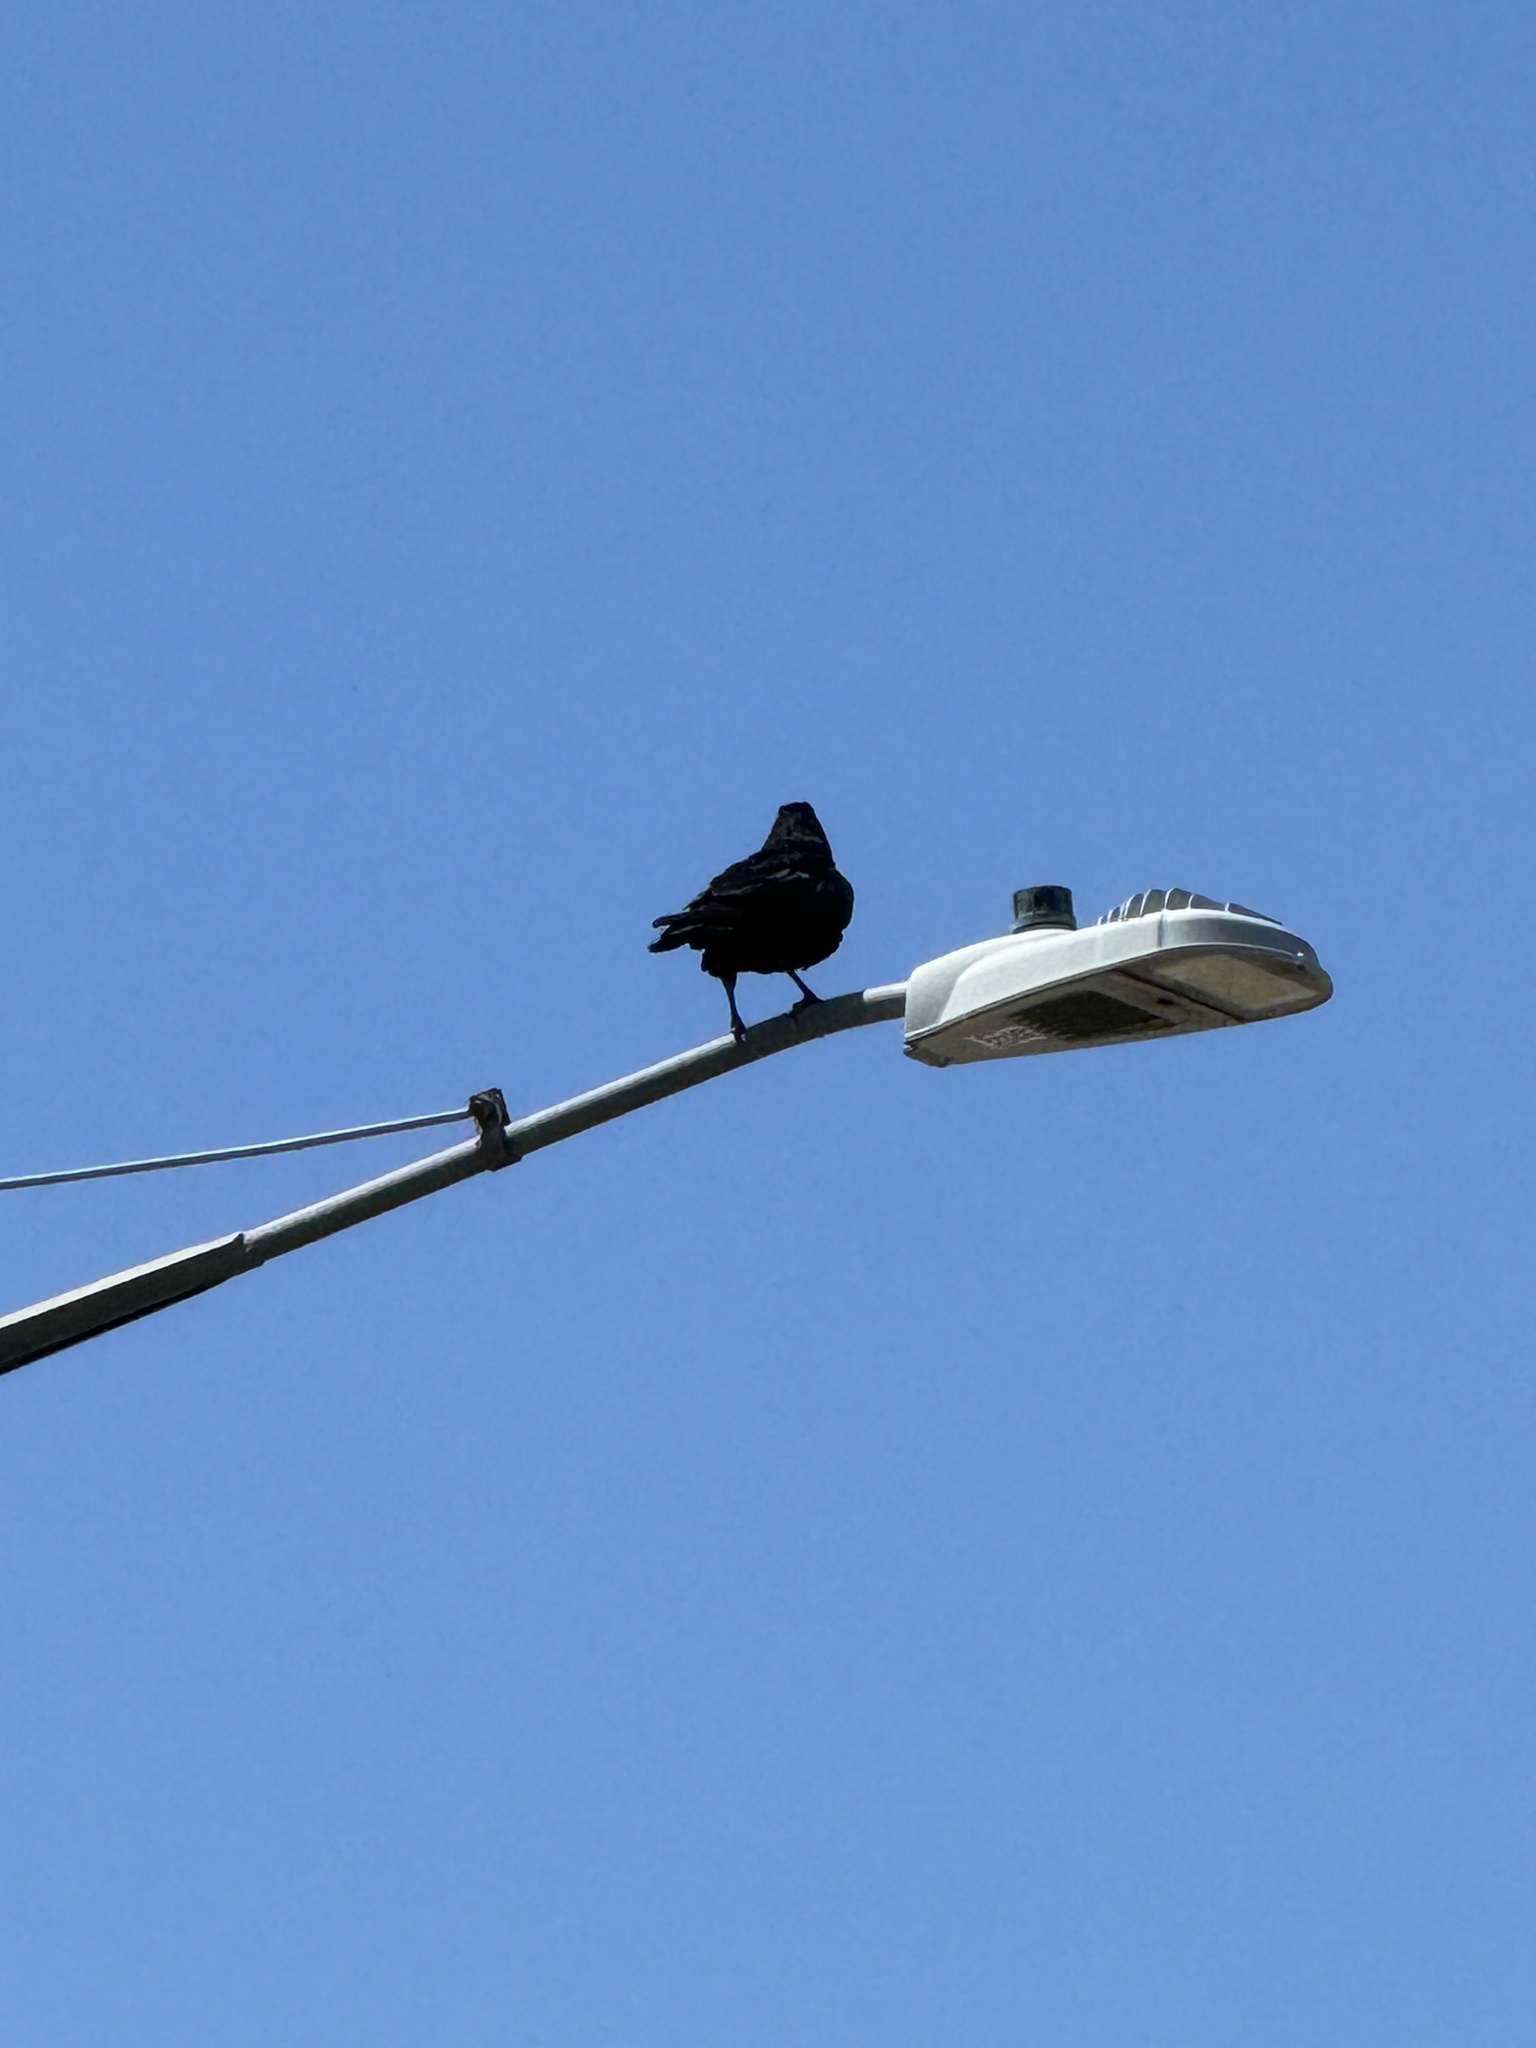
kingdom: Animalia
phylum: Chordata
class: Aves
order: Passeriformes
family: Corvidae
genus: Corvus
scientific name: Corvus corax
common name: Common raven
